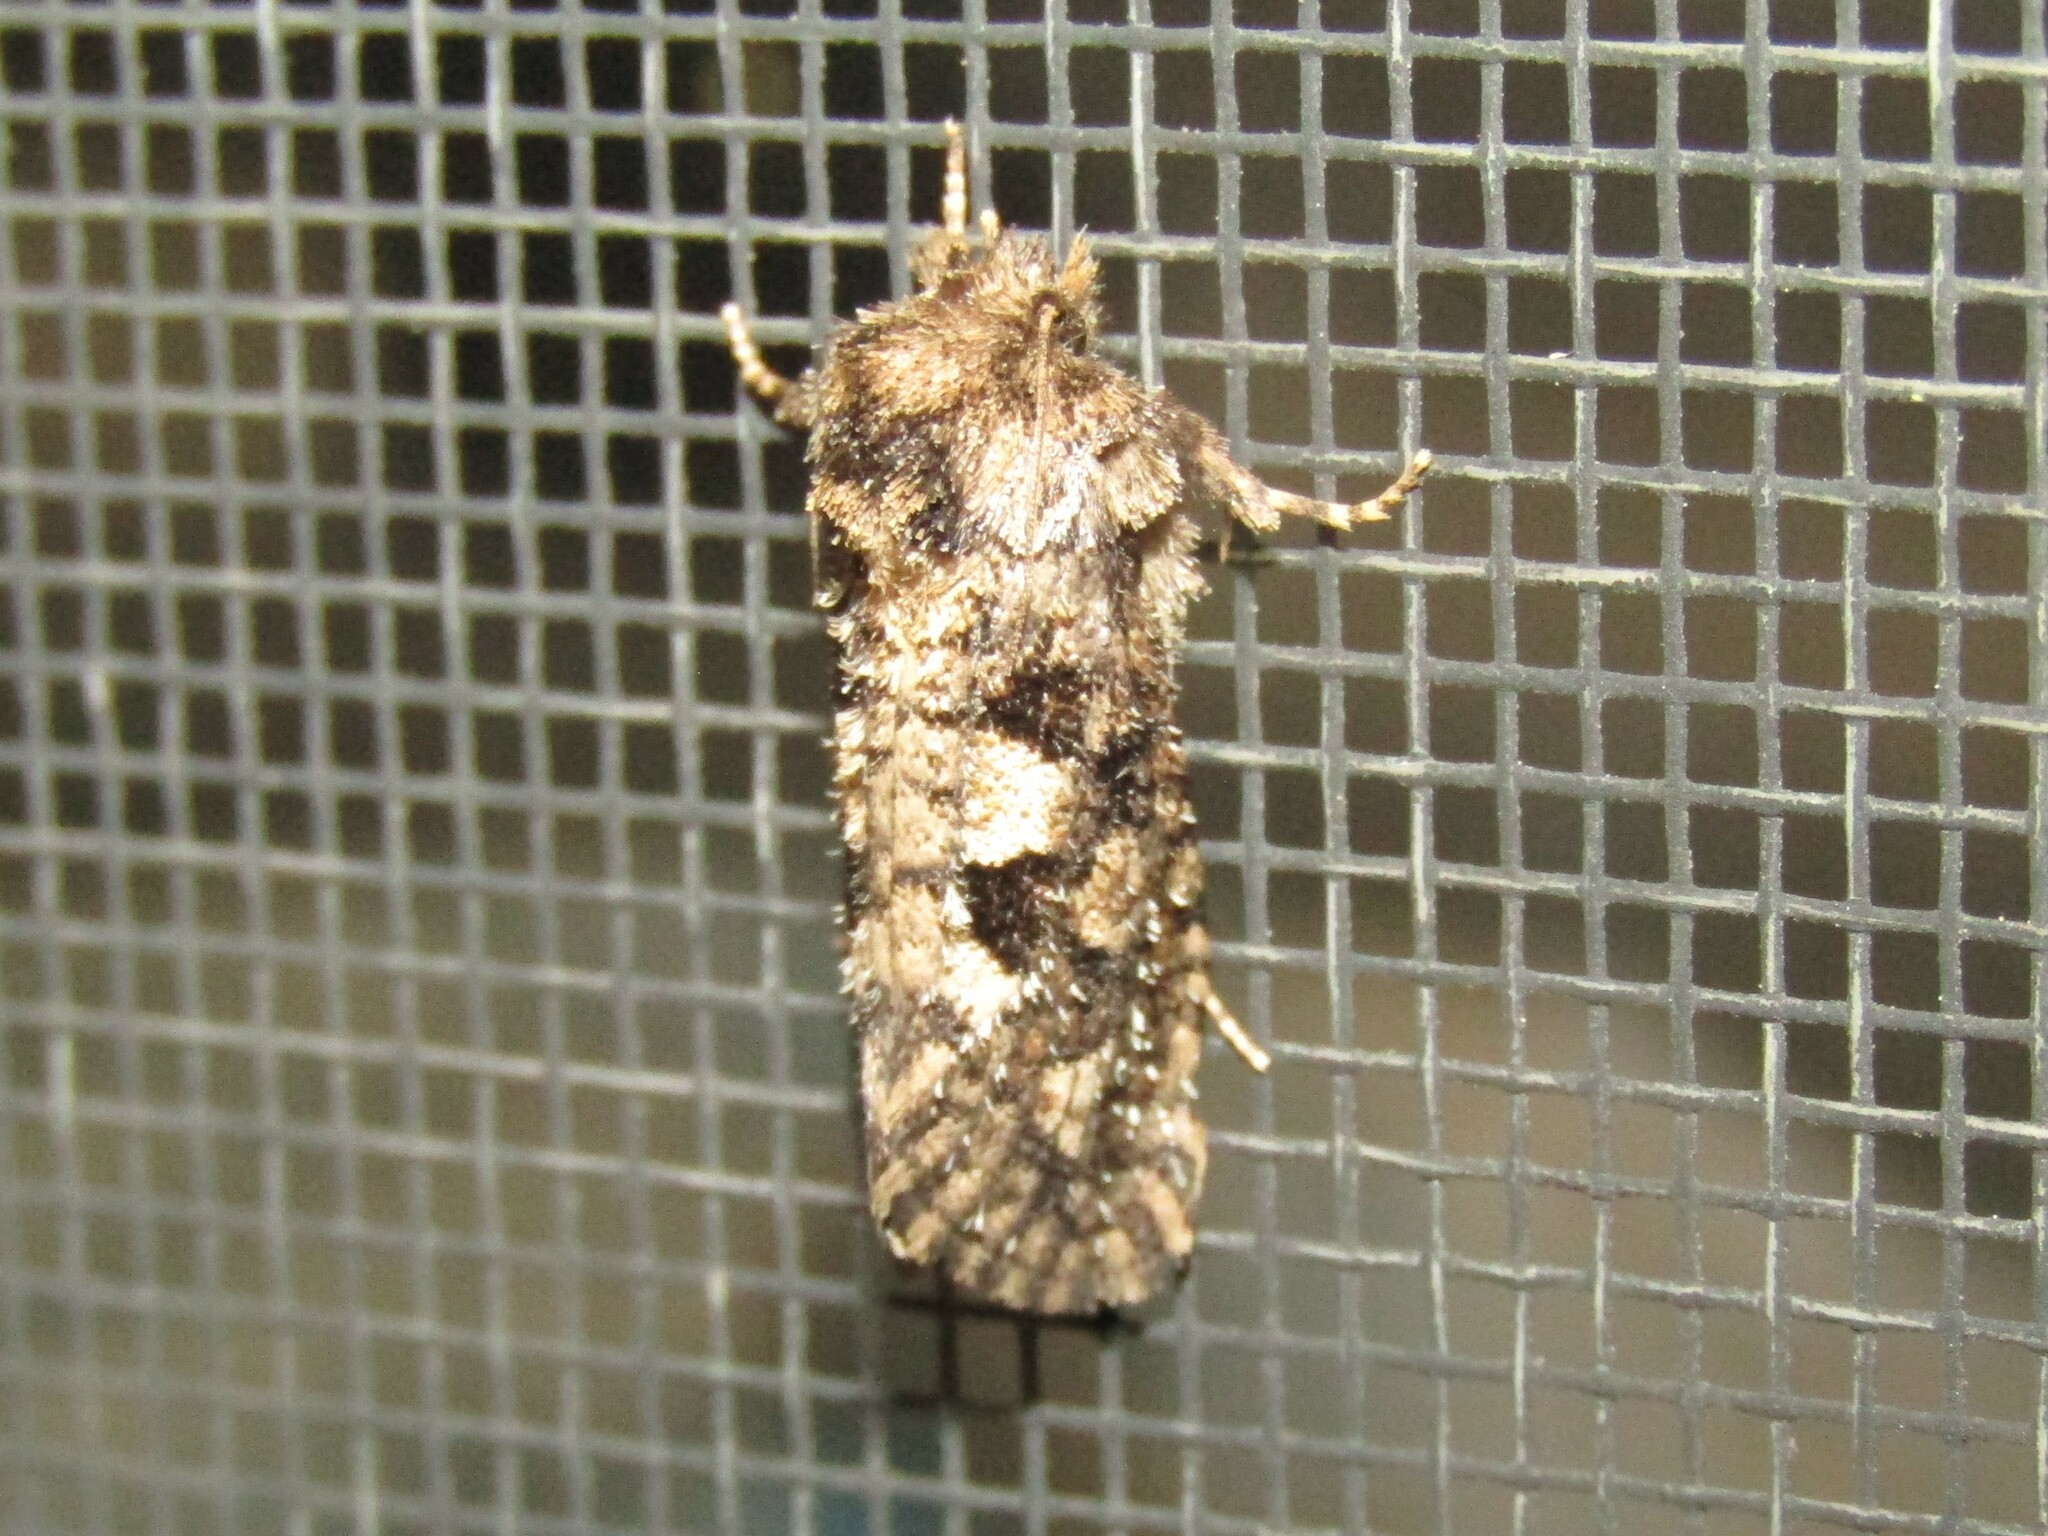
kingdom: Animalia
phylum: Arthropoda
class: Insecta
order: Lepidoptera
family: Tineidae
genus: Acrolophus
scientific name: Acrolophus arcanella
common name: Arcane grass tubeworm moth
